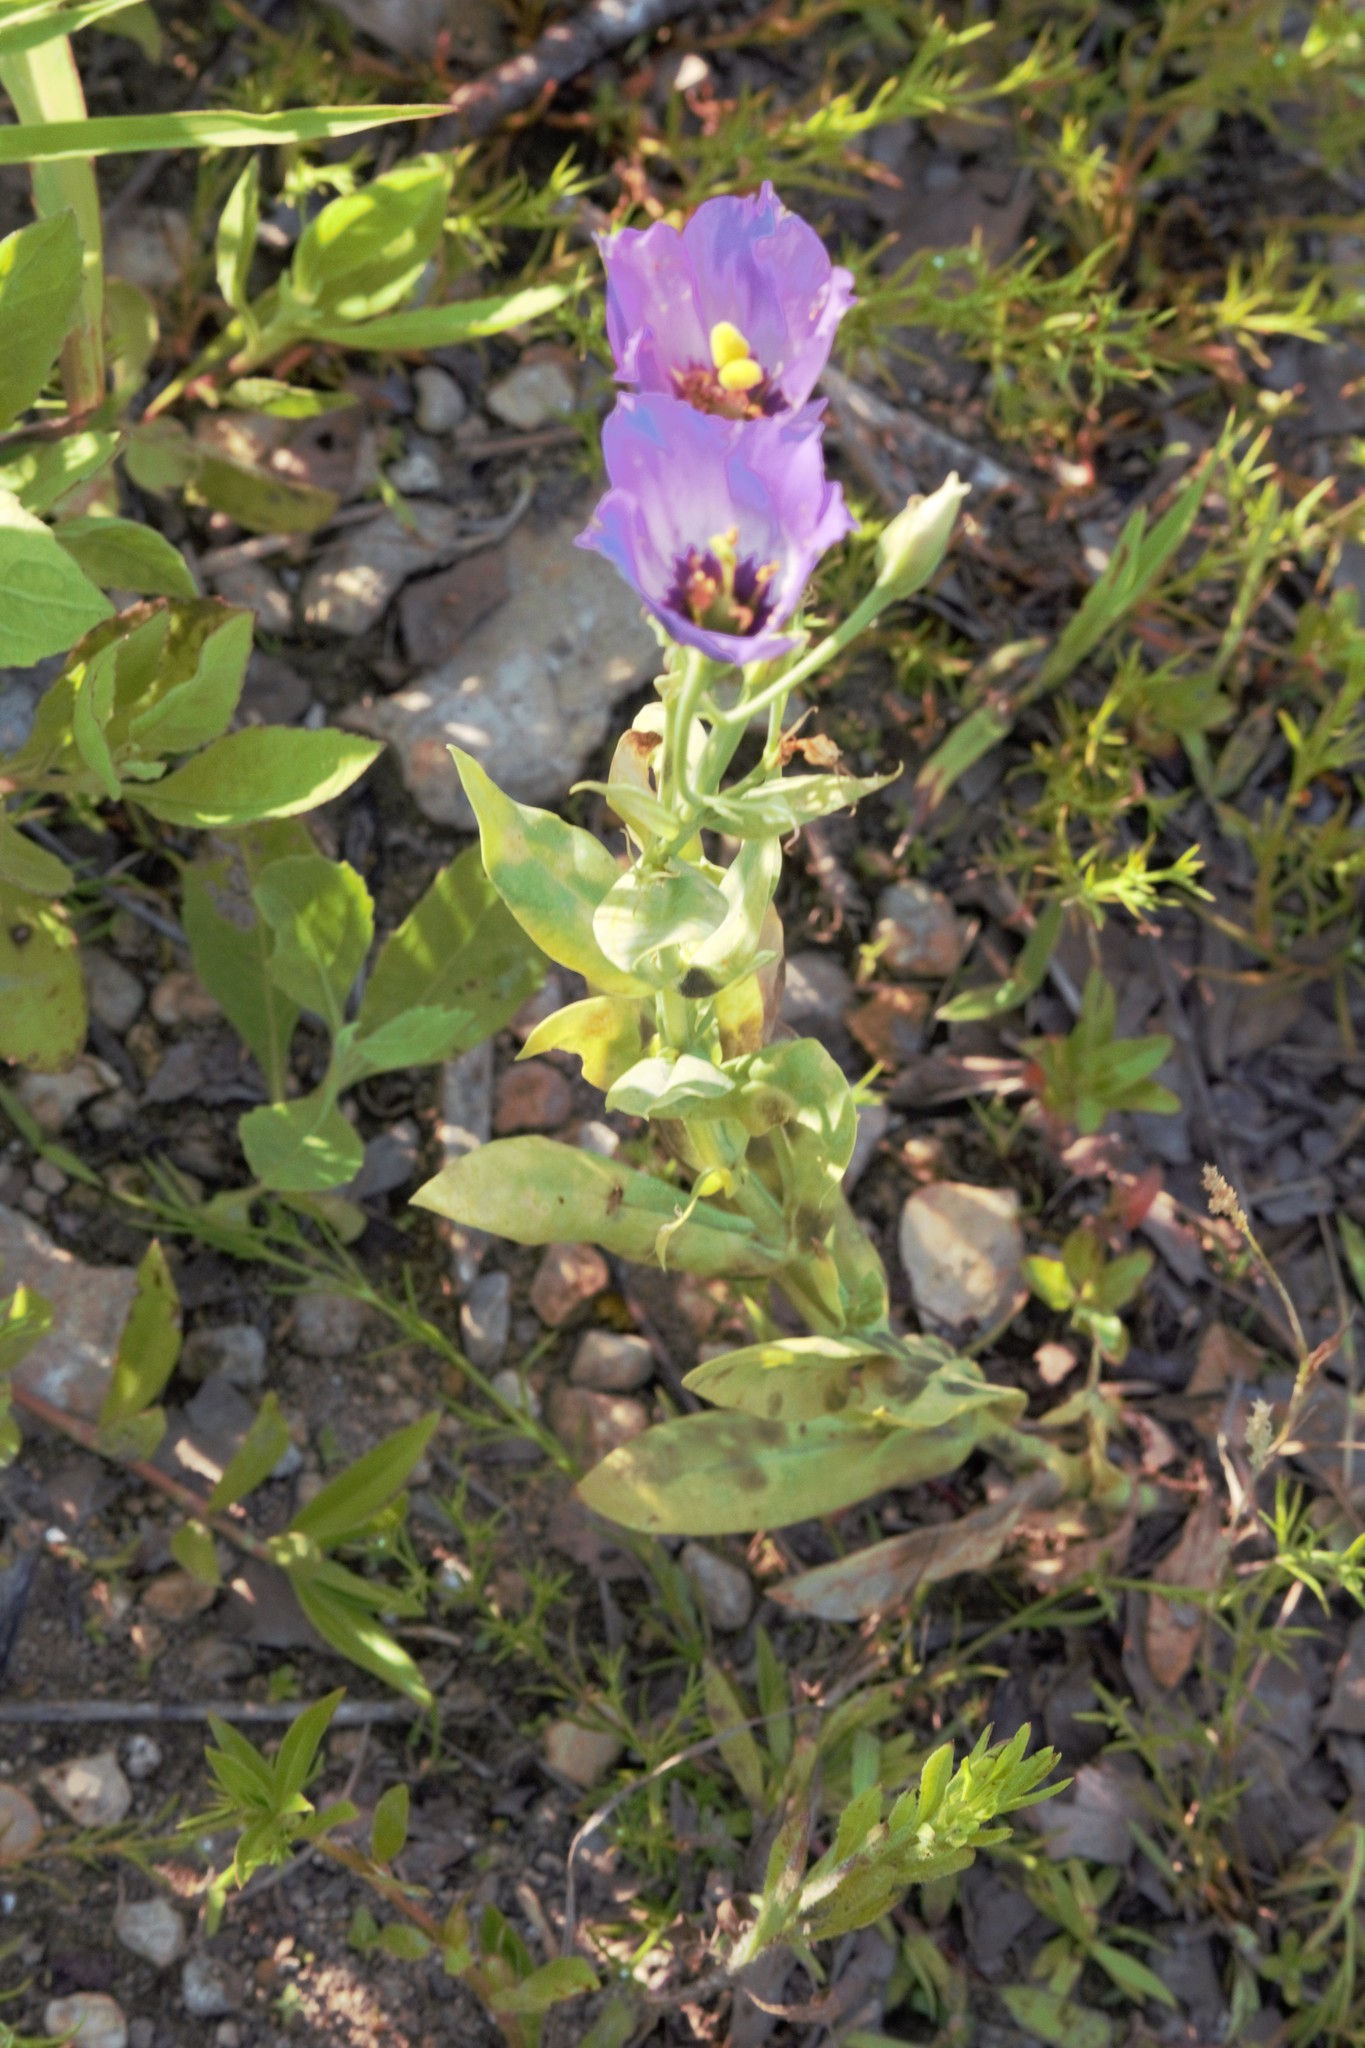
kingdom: Plantae
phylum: Tracheophyta
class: Magnoliopsida
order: Gentianales
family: Gentianaceae
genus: Eustoma
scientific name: Eustoma russellianum
